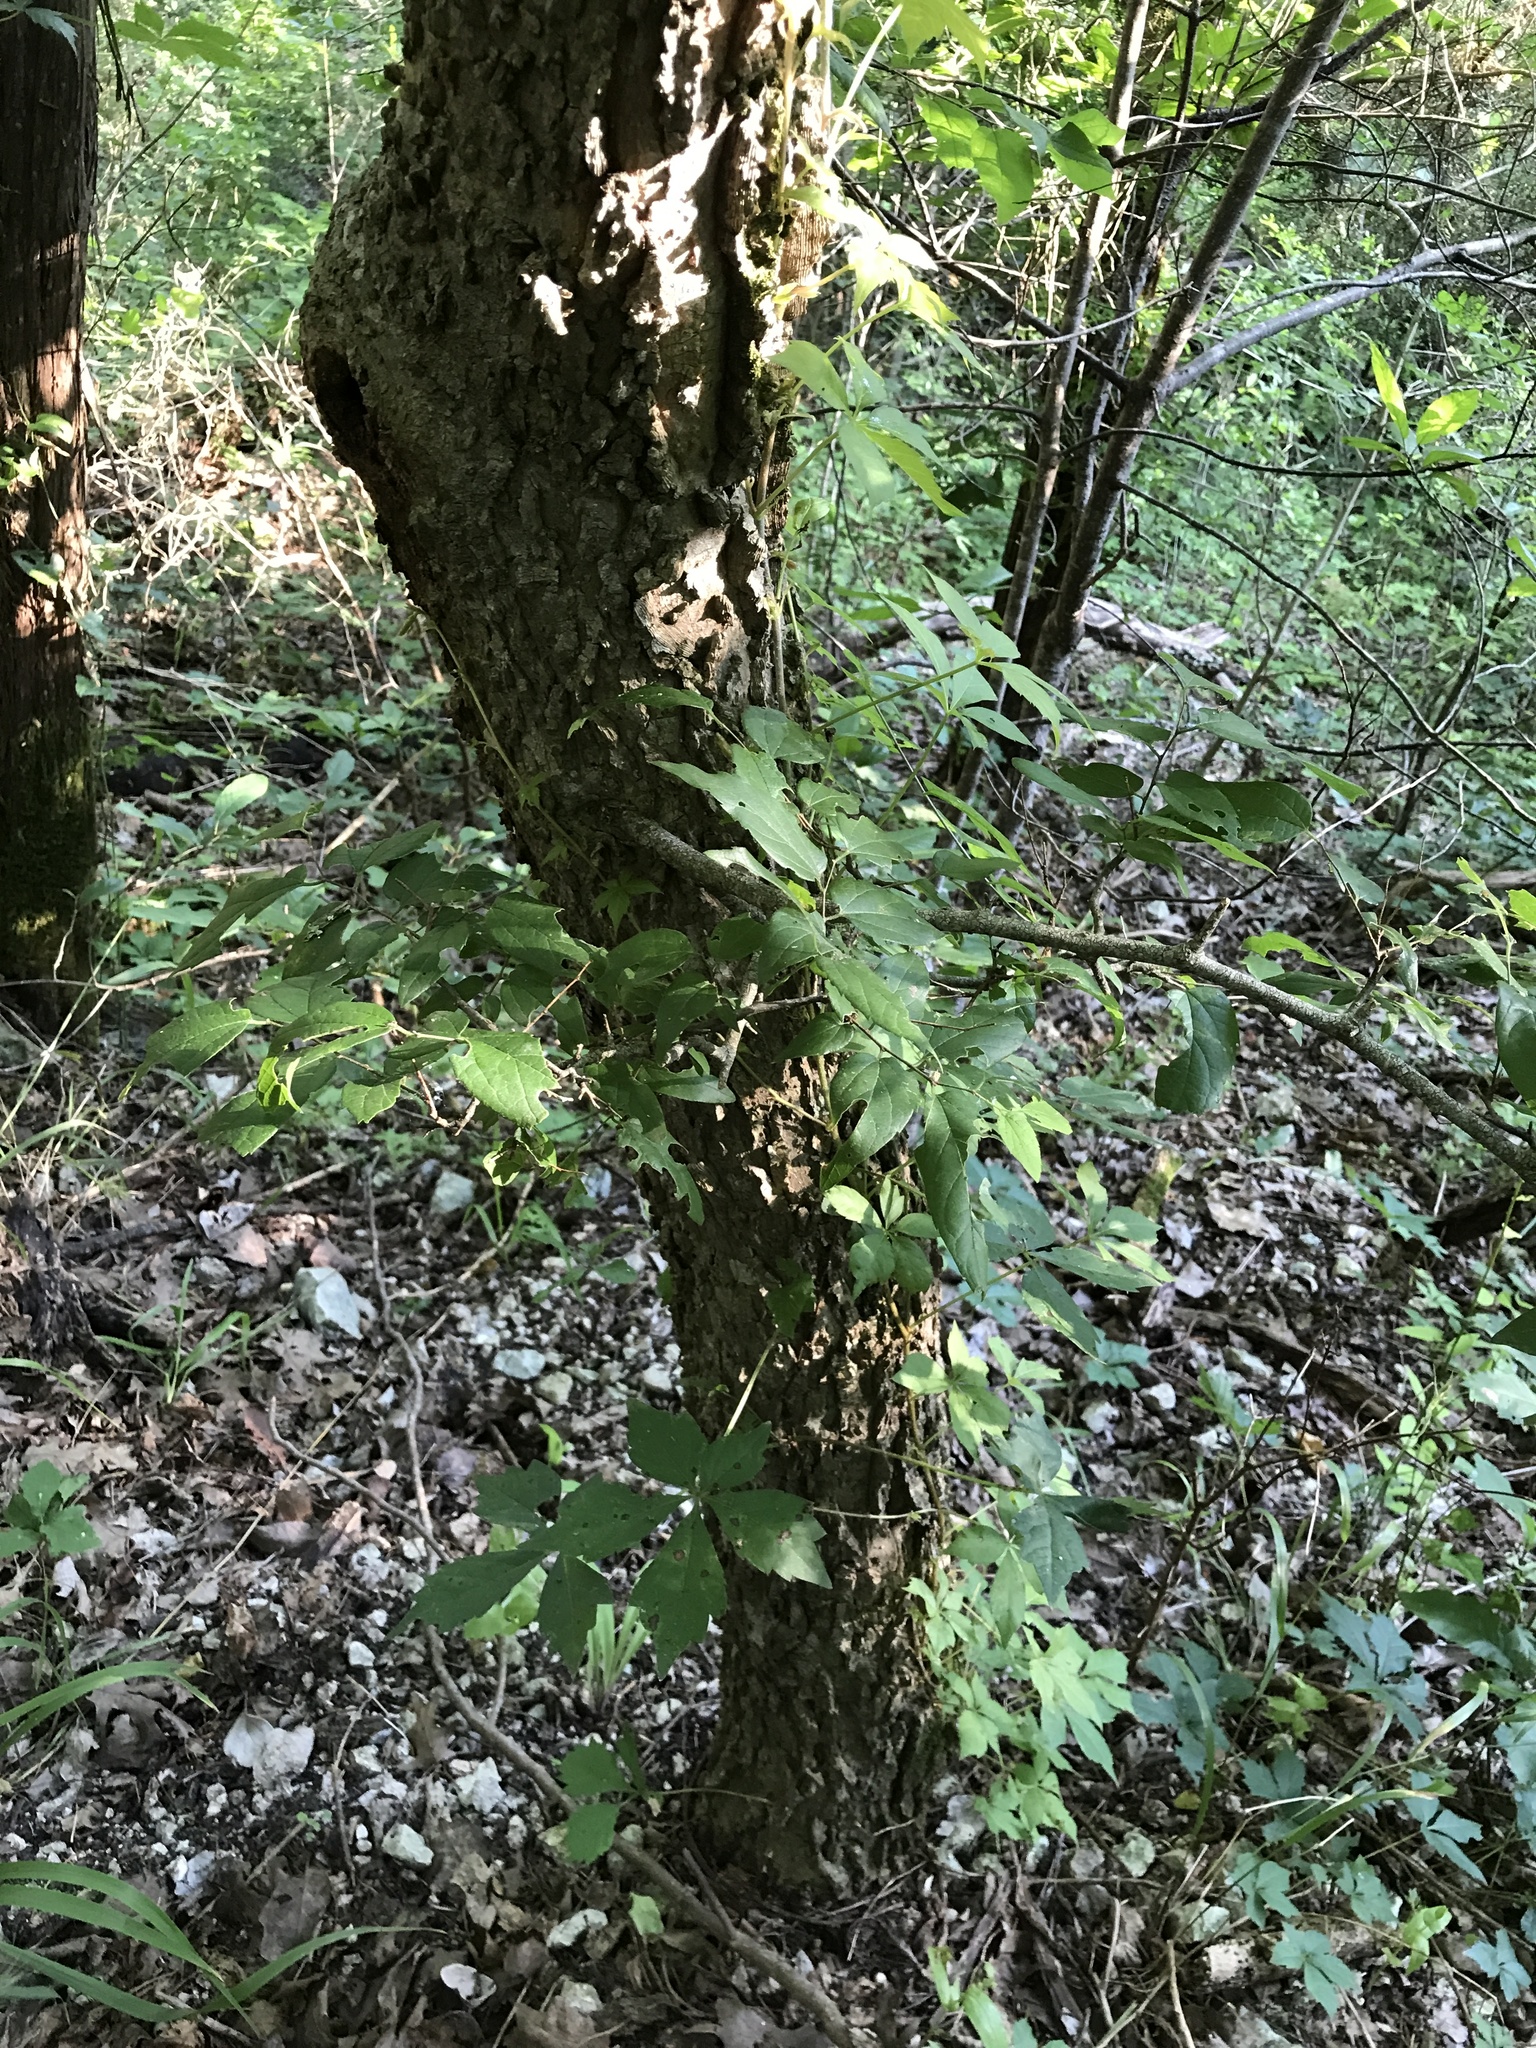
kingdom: Plantae
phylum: Tracheophyta
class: Magnoliopsida
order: Rosales
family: Cannabaceae
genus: Celtis
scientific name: Celtis laevigata
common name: Sugarberry
